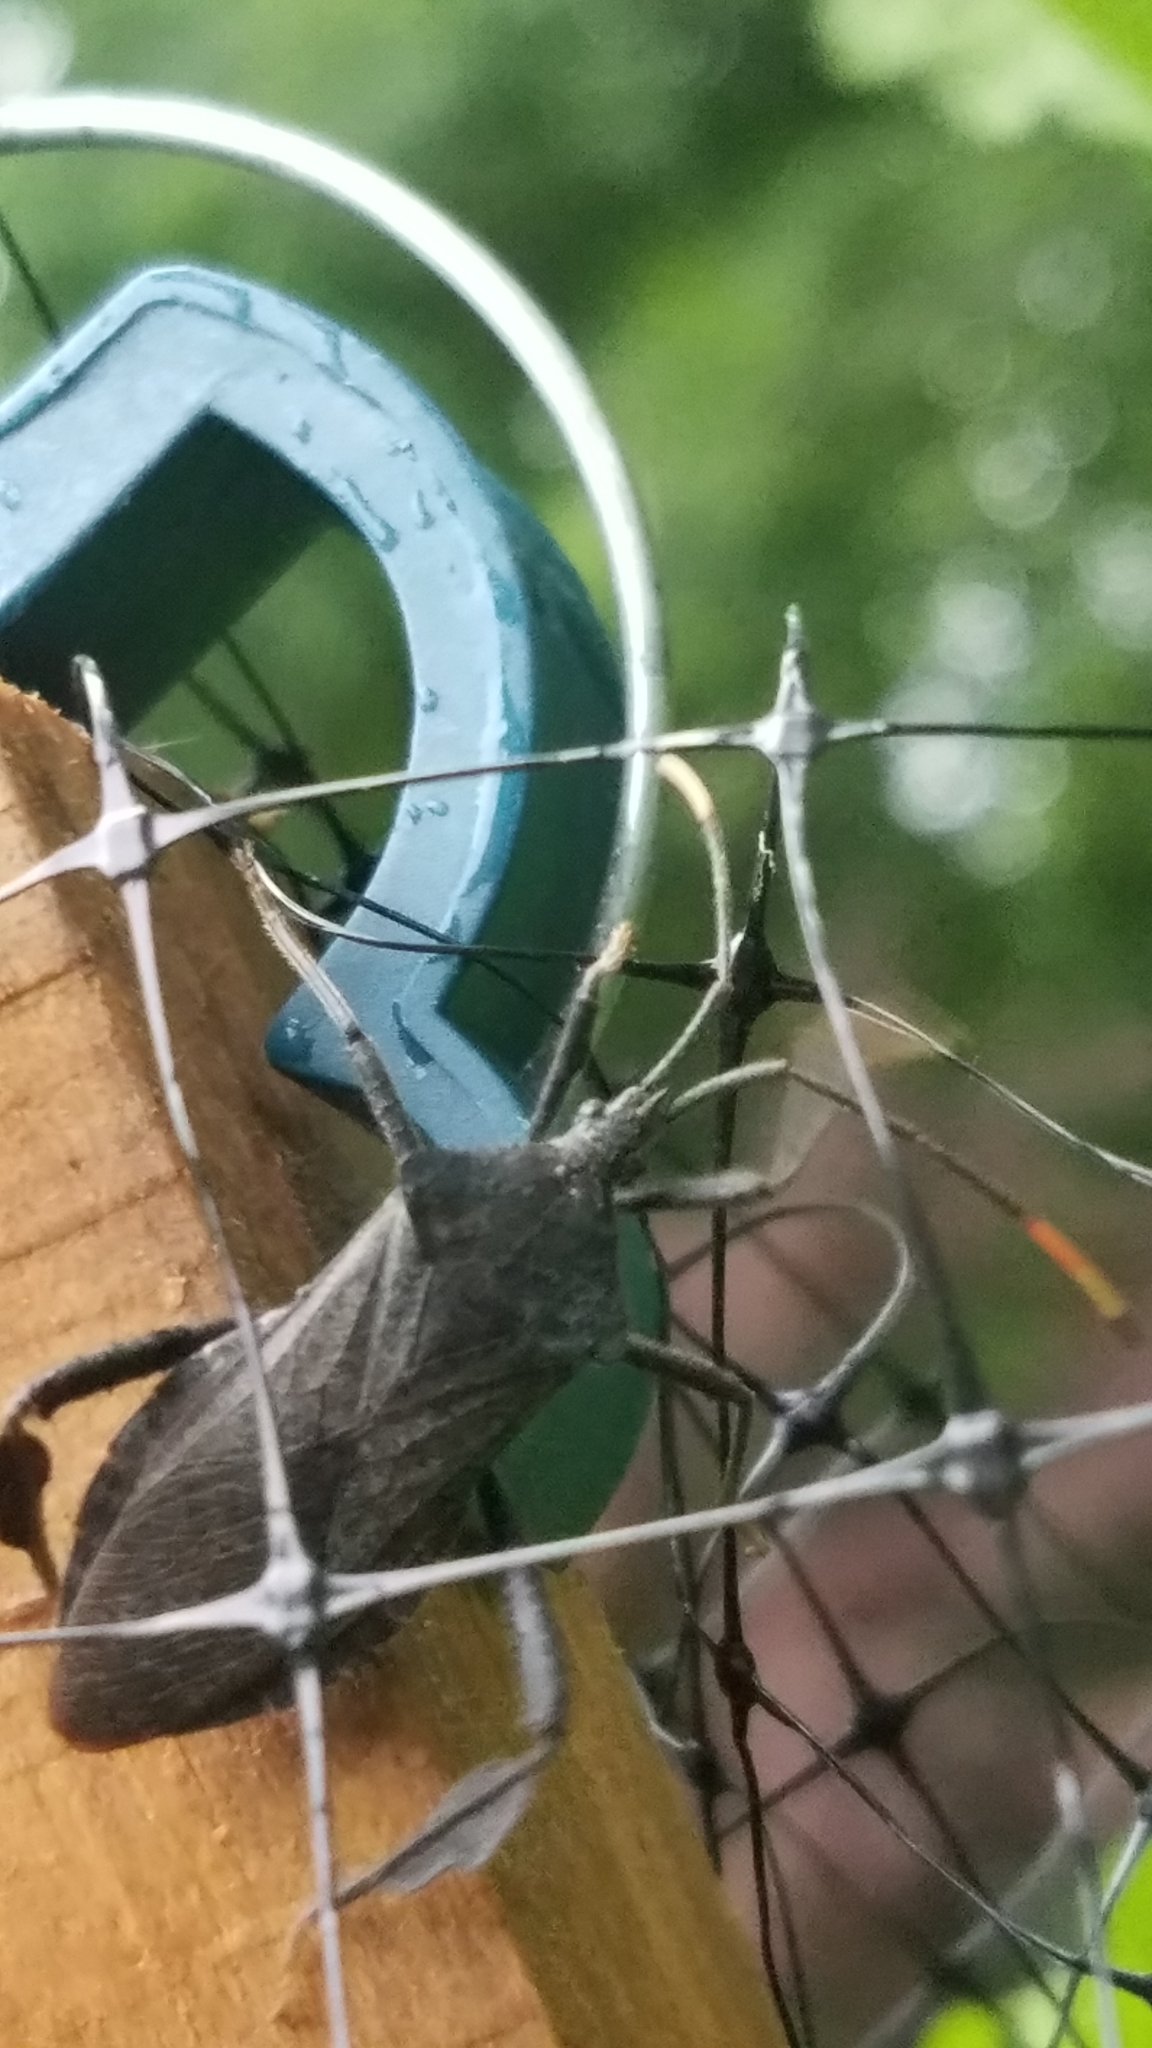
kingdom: Animalia
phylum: Arthropoda
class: Insecta
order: Hemiptera
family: Coreidae
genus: Acanthocephala
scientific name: Acanthocephala terminalis
